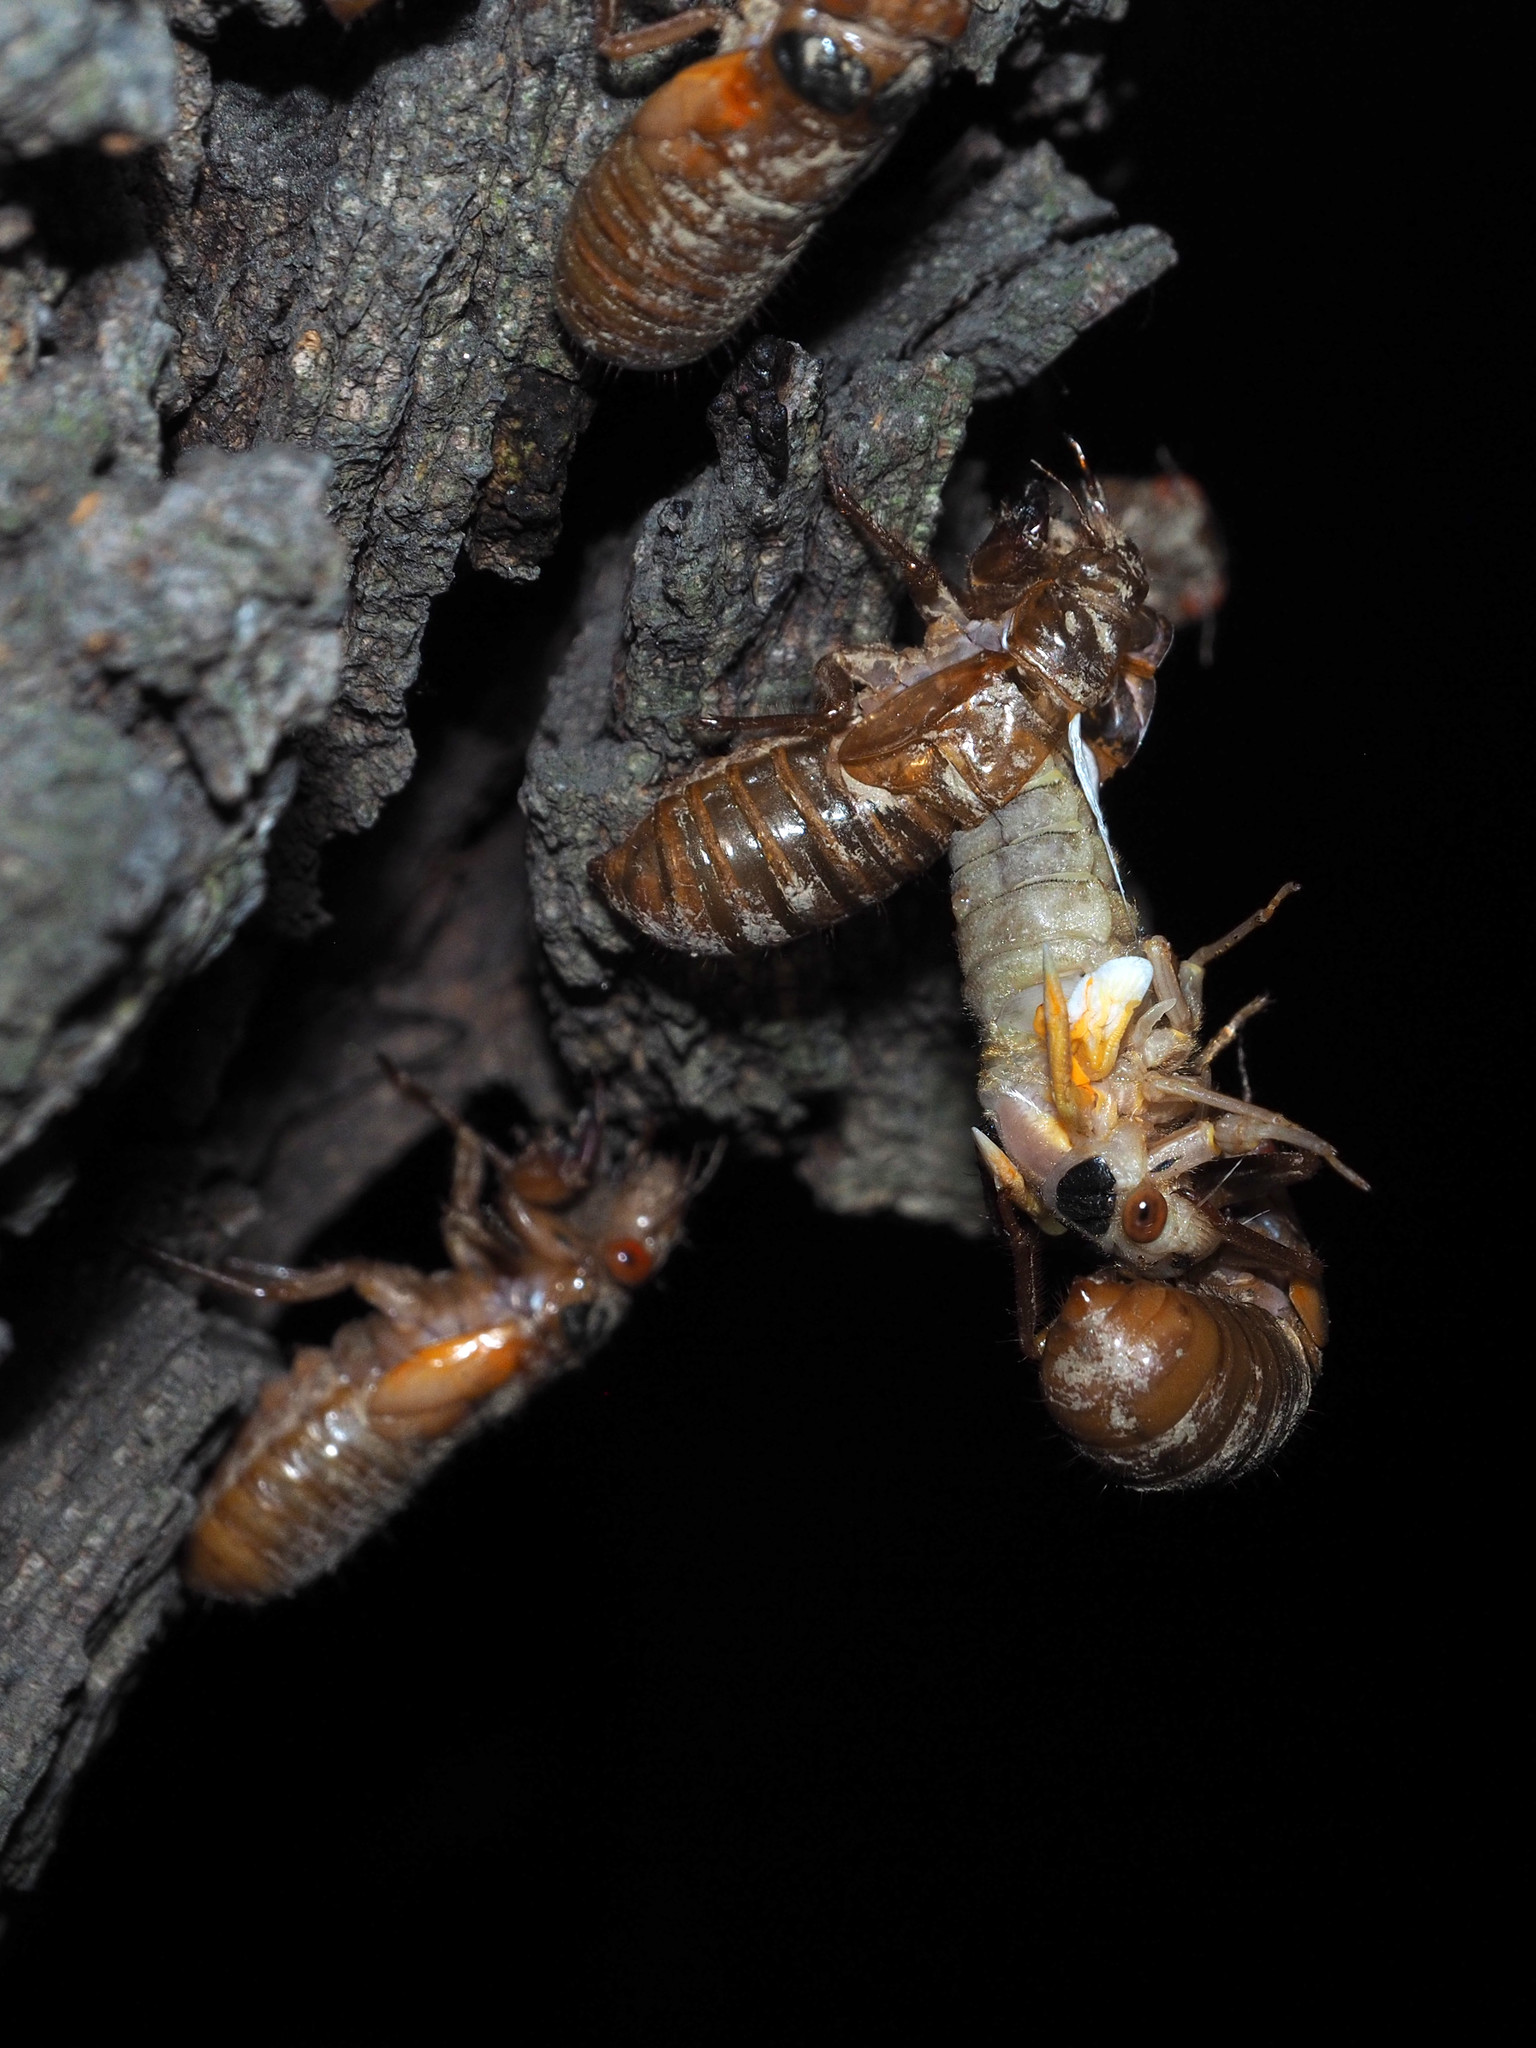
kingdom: Animalia
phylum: Arthropoda
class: Insecta
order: Hemiptera
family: Cicadidae
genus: Magicicada
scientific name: Magicicada
